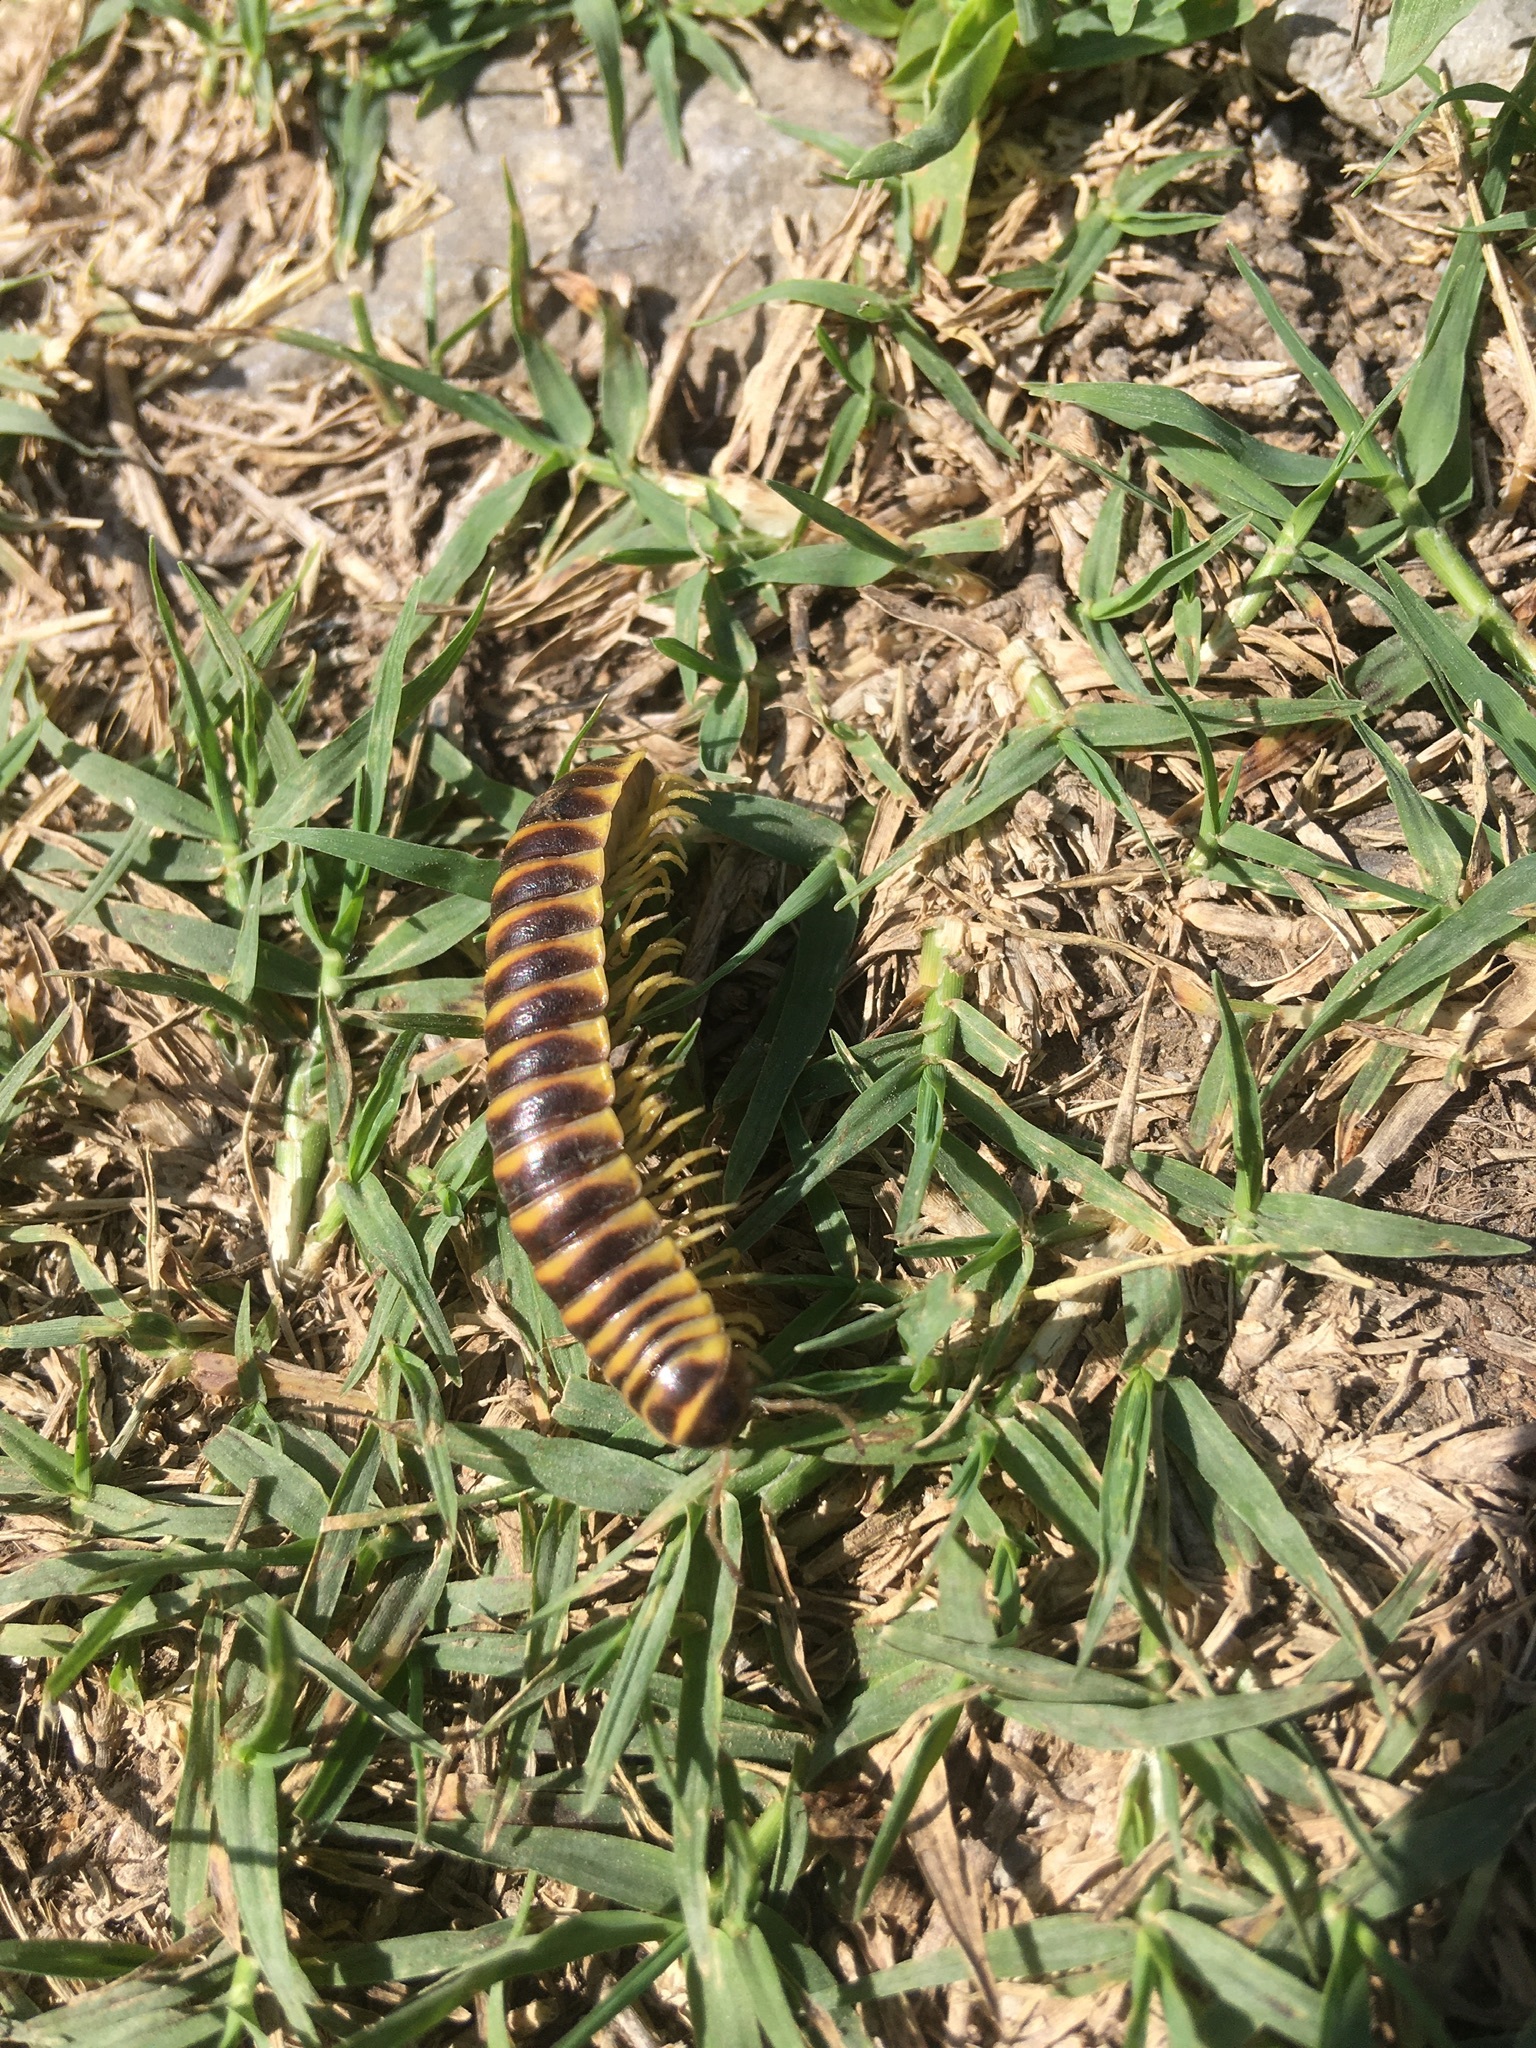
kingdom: Animalia
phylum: Arthropoda
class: Diplopoda
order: Polydesmida
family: Xystodesmidae
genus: Pleuroloma
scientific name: Pleuroloma flavipes
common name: Yellow-legged pleuroloma
